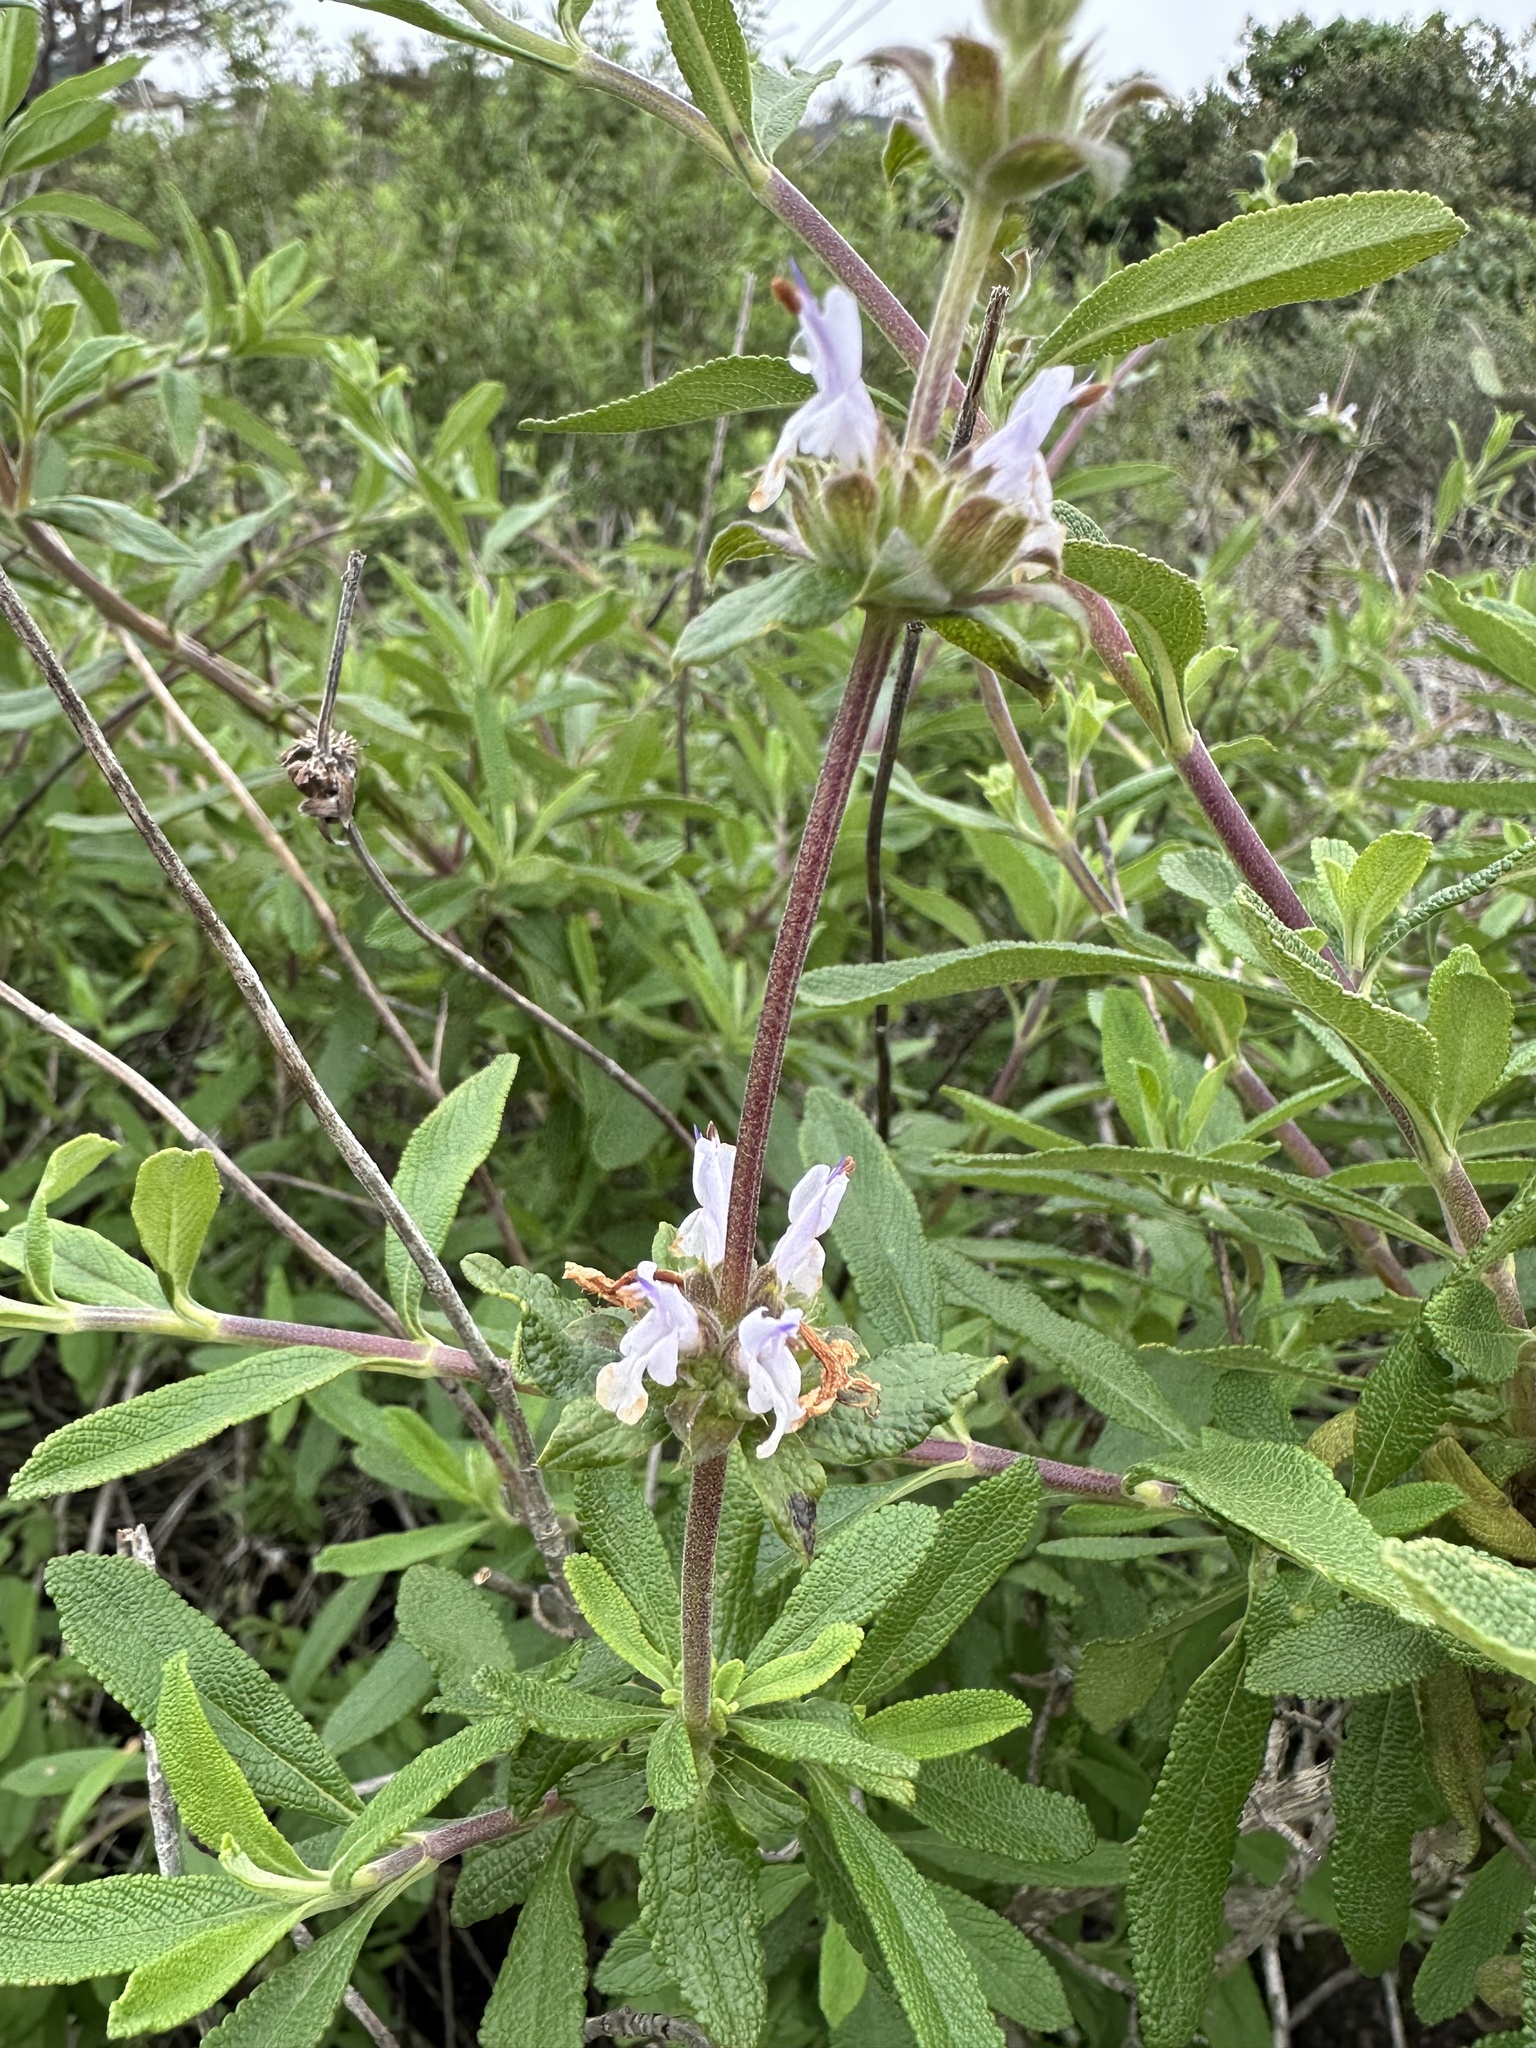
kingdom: Plantae
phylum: Tracheophyta
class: Magnoliopsida
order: Lamiales
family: Lamiaceae
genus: Salvia
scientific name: Salvia mellifera
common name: Black sage
